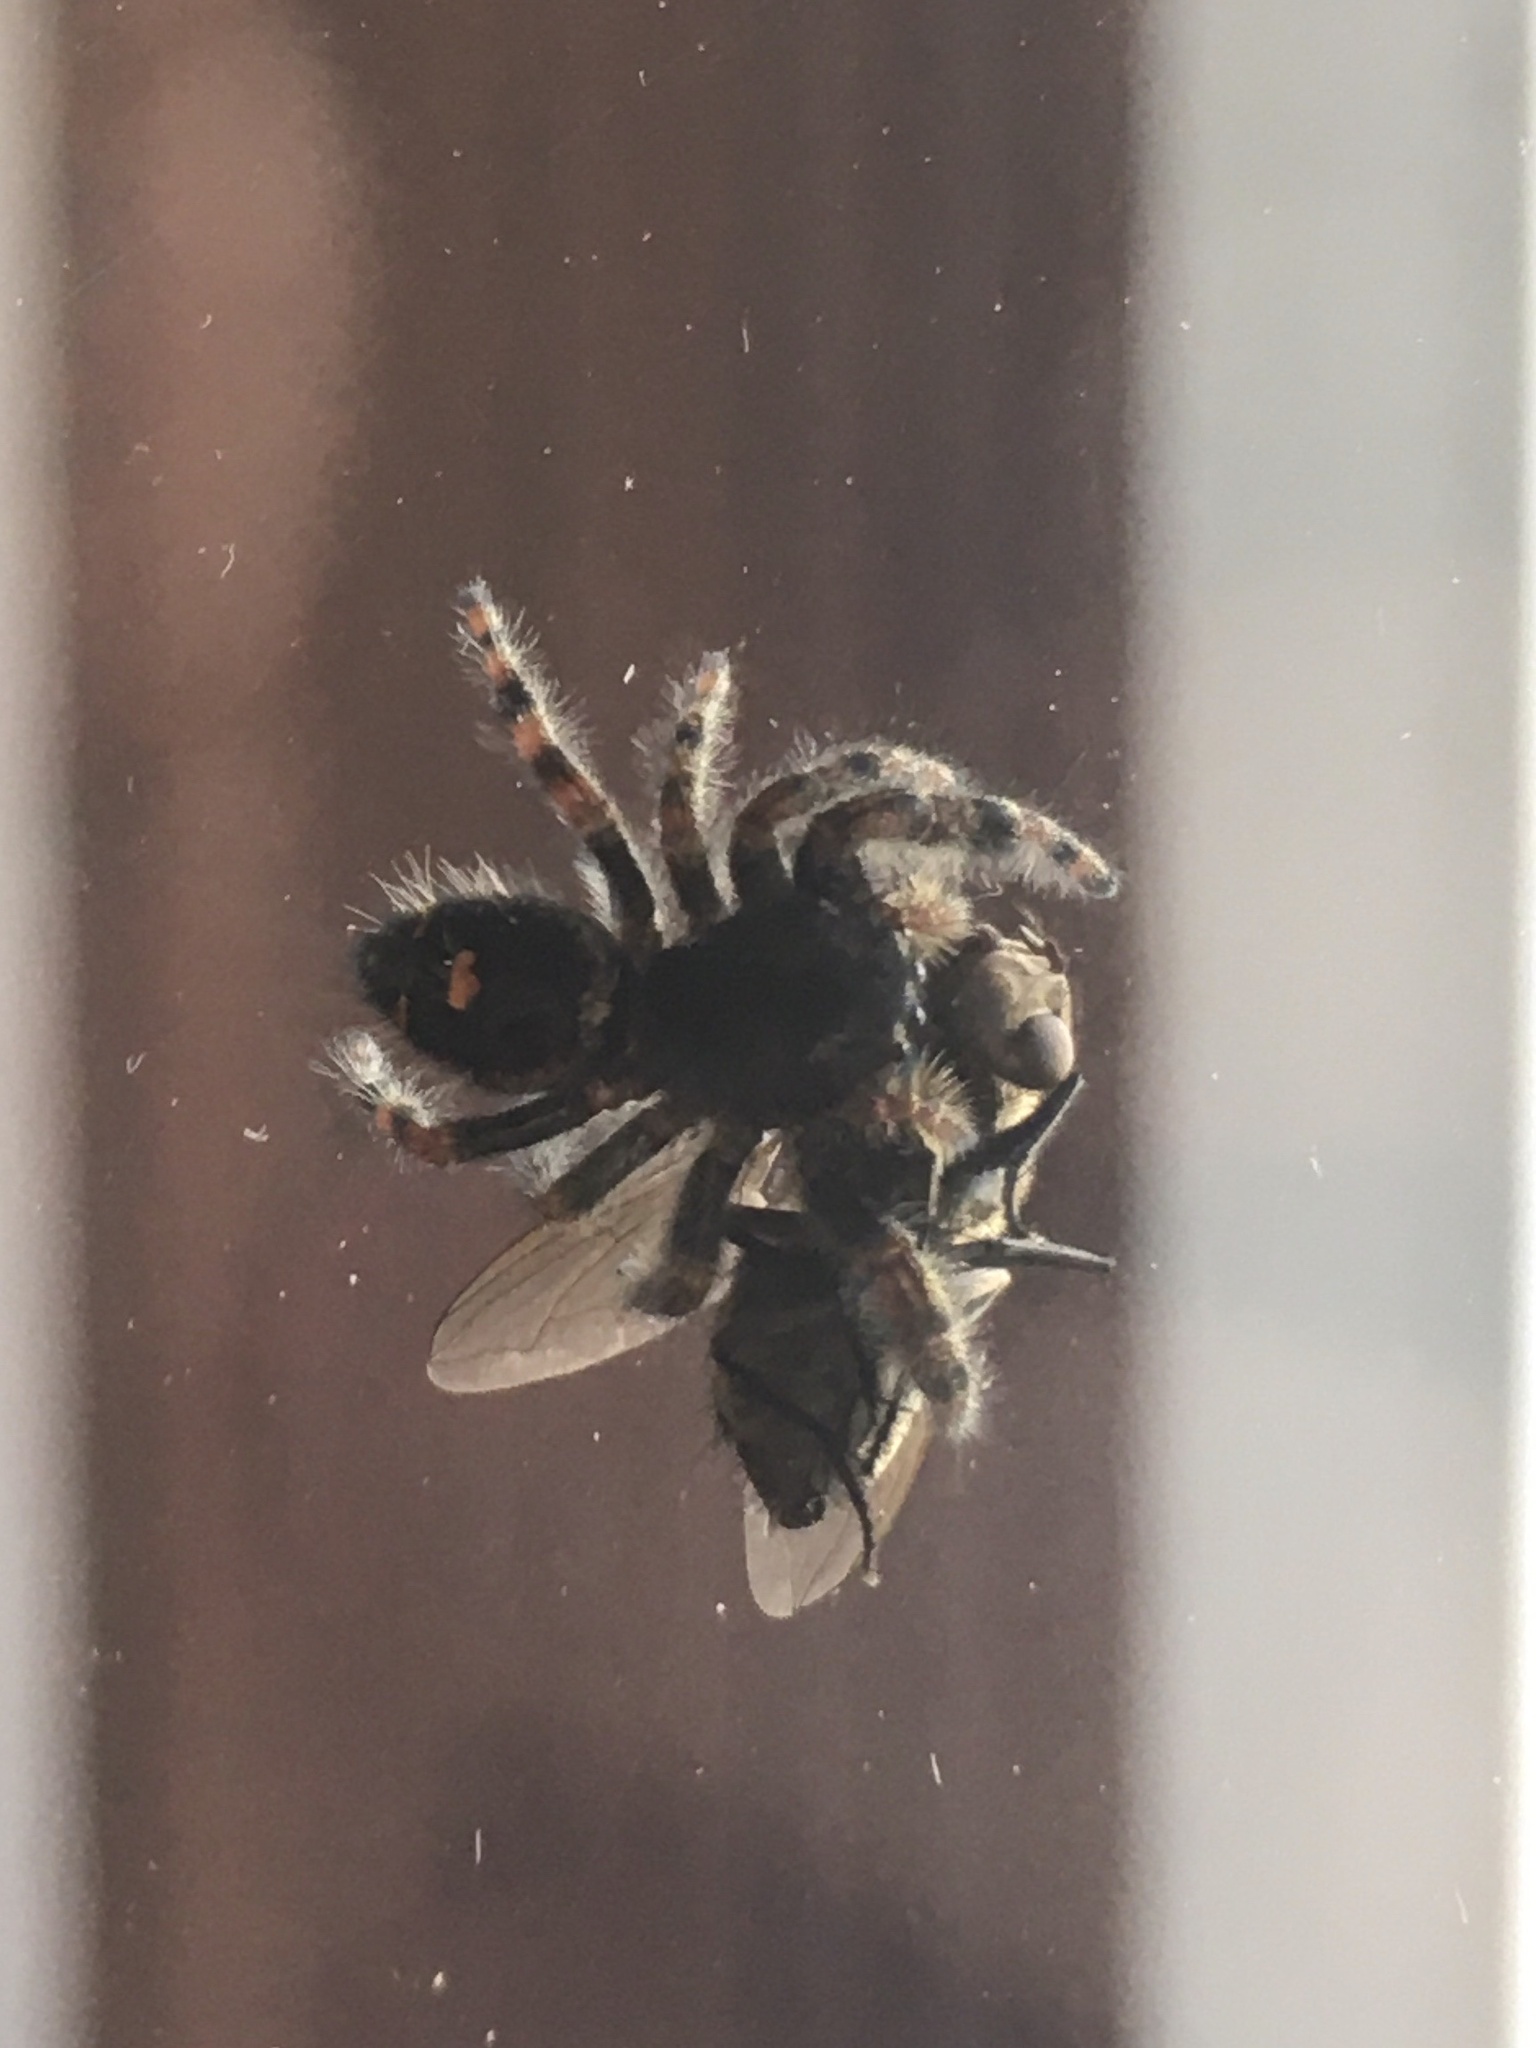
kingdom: Animalia
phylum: Arthropoda
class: Arachnida
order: Araneae
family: Salticidae
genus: Phidippus
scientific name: Phidippus audax
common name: Bold jumper
